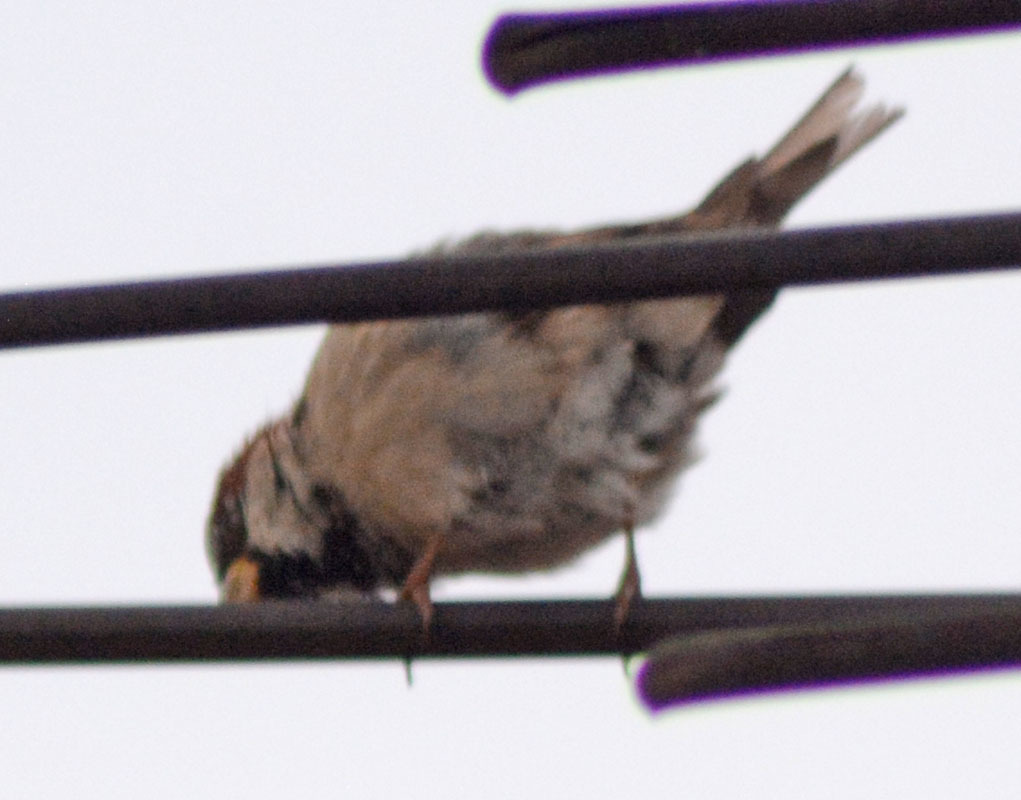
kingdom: Animalia
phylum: Chordata
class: Aves
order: Passeriformes
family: Passeridae
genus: Passer
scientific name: Passer domesticus
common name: House sparrow
